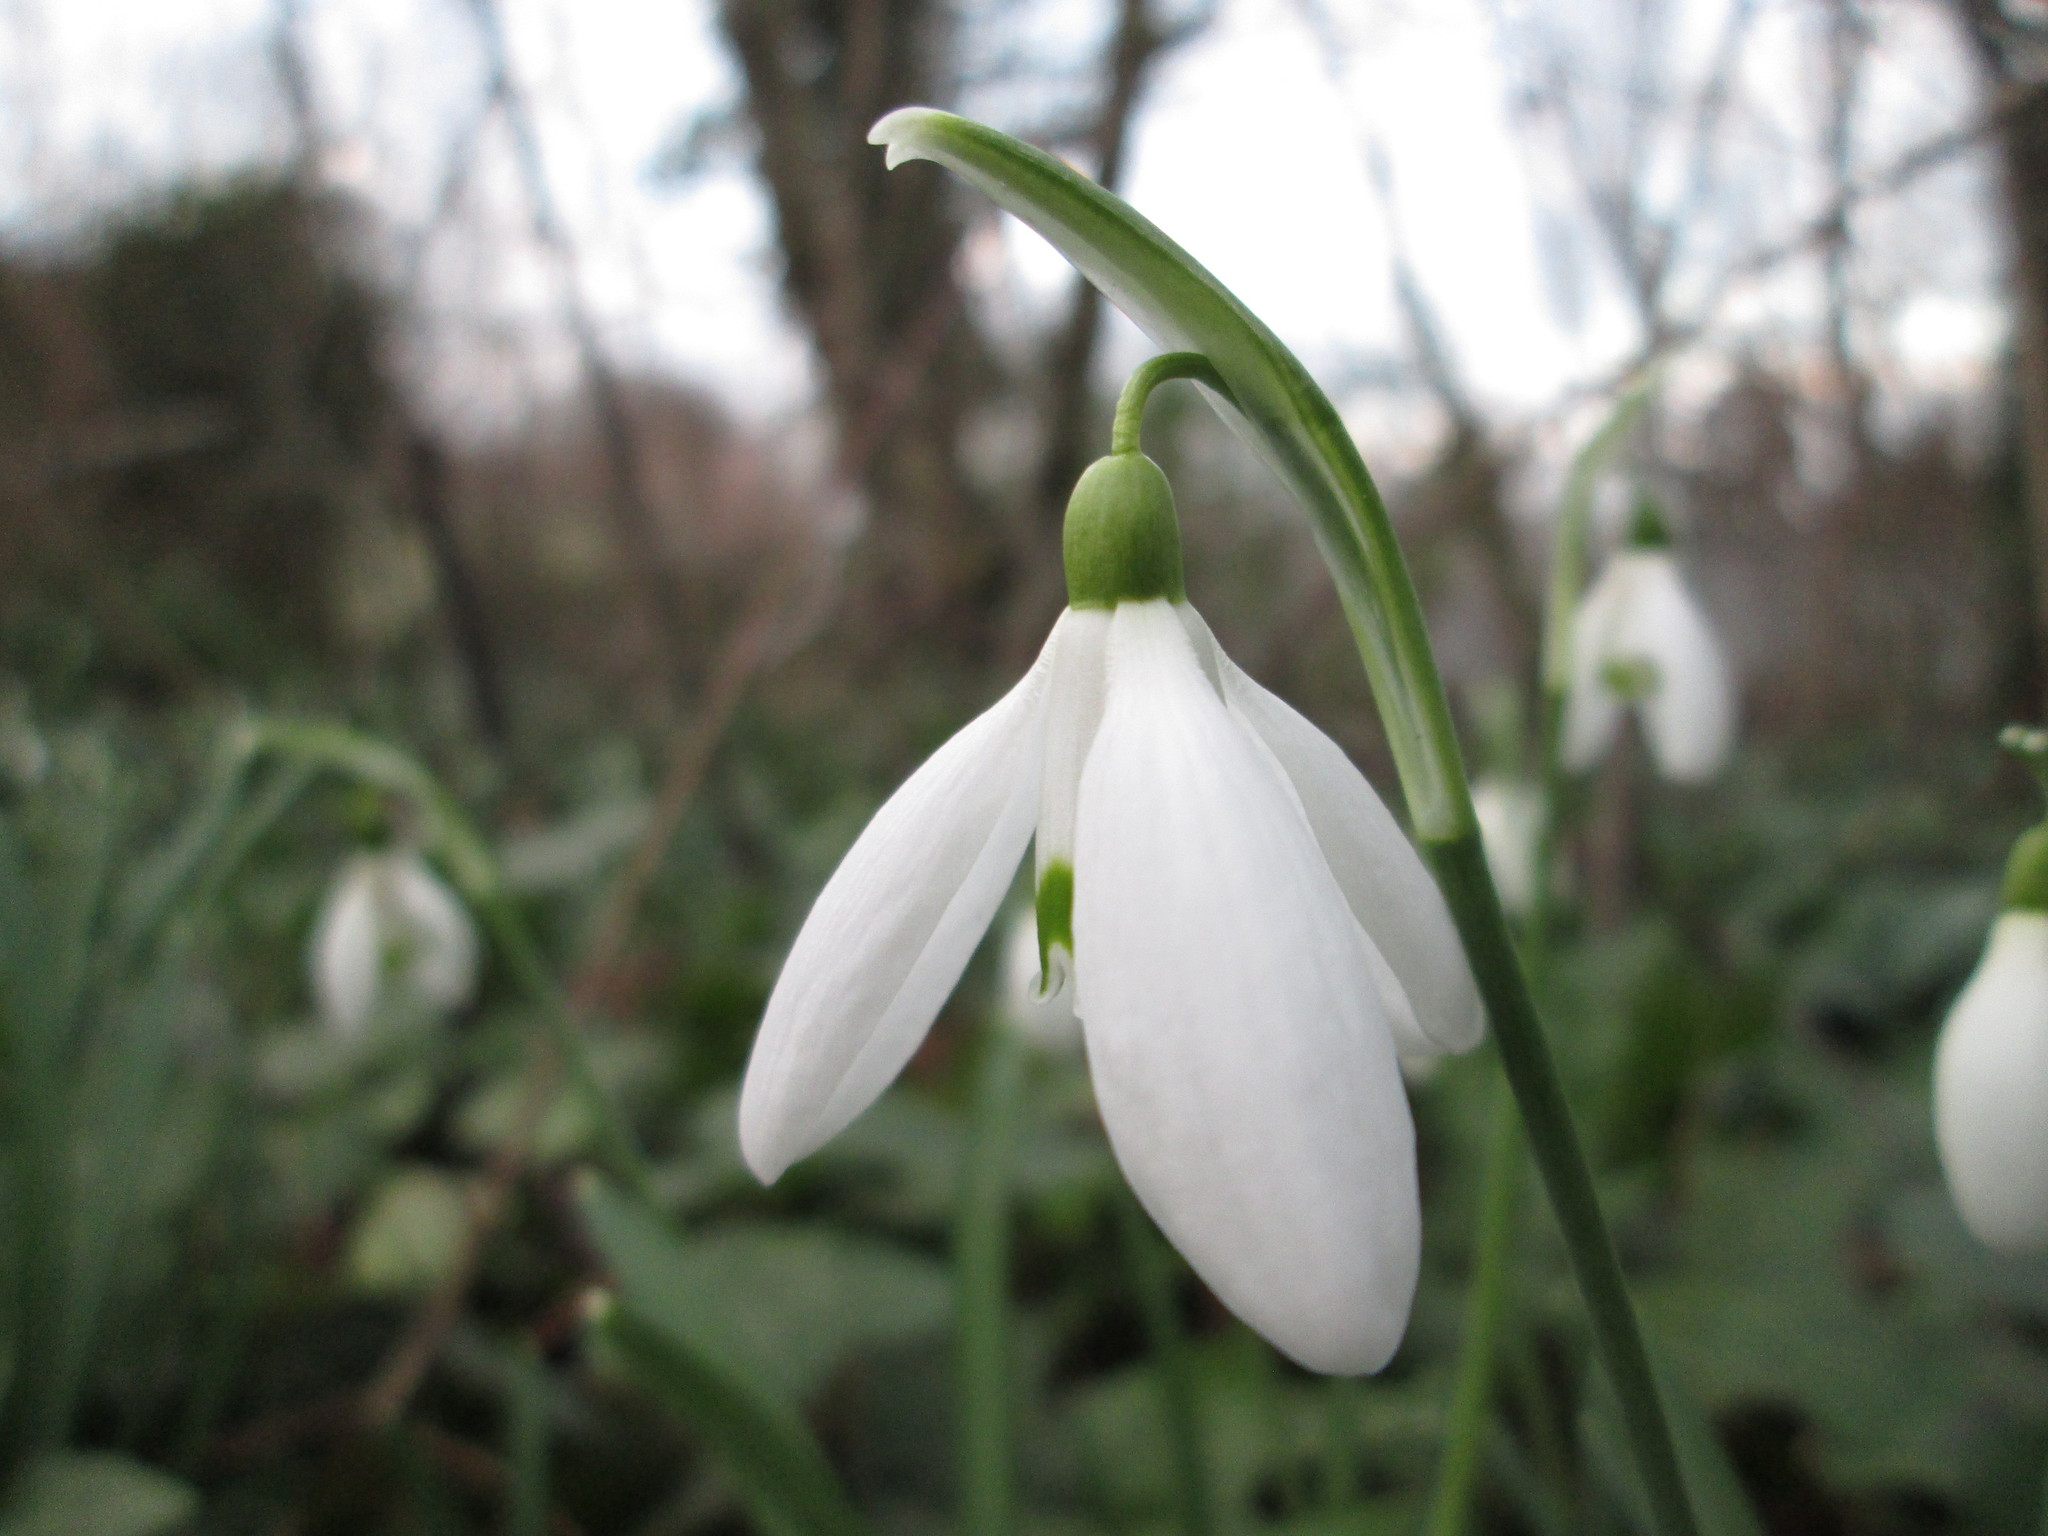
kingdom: Plantae
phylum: Tracheophyta
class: Liliopsida
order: Asparagales
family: Amaryllidaceae
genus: Galanthus
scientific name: Galanthus nivalis
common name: Snowdrop
